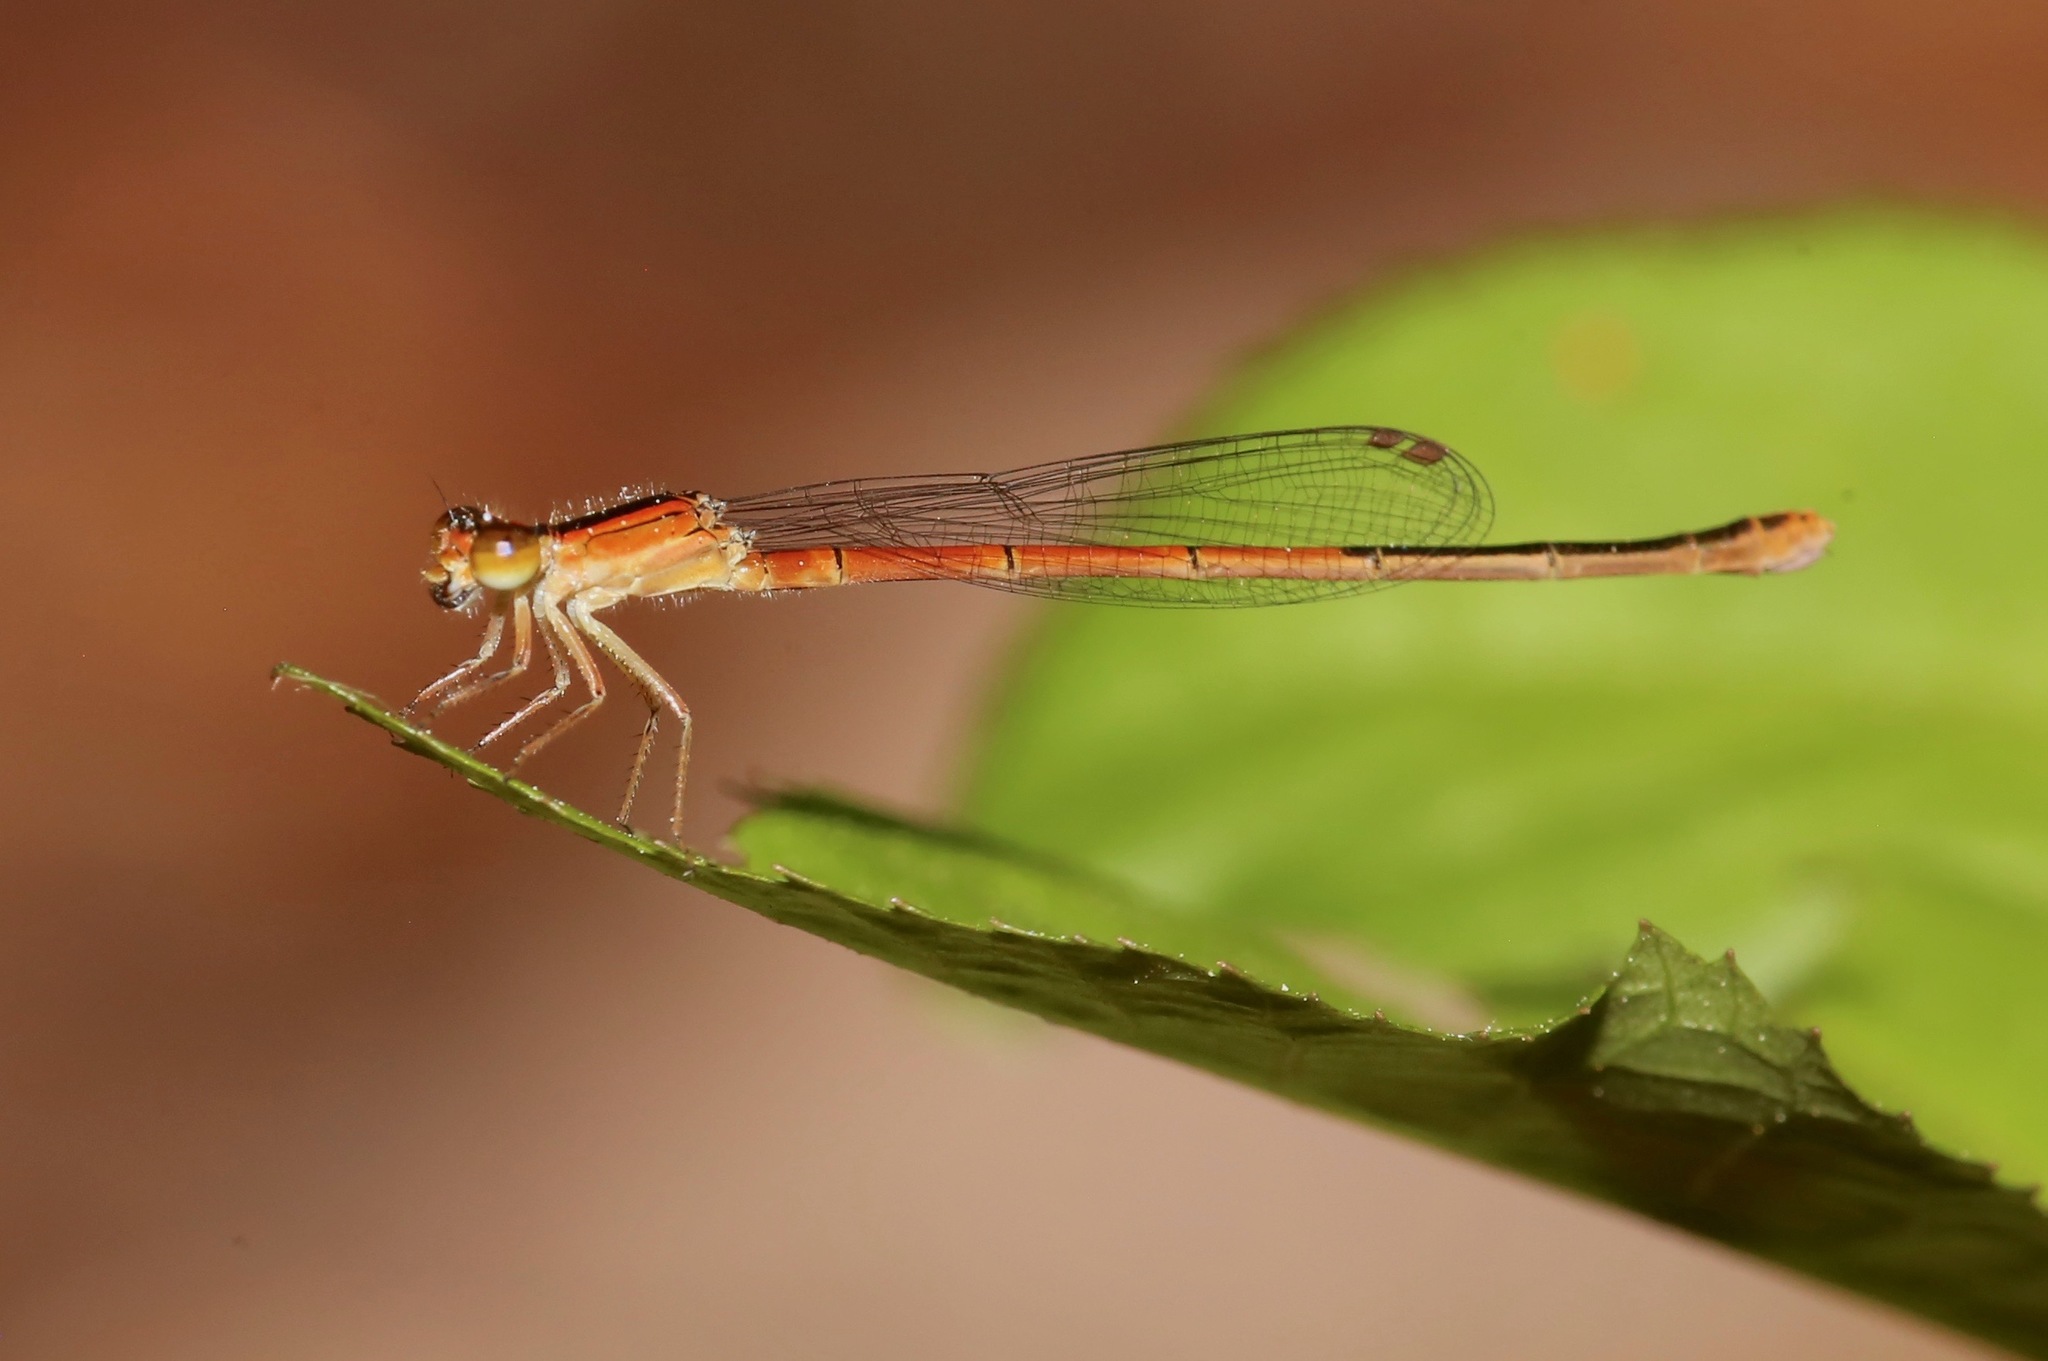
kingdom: Animalia
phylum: Arthropoda
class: Insecta
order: Odonata
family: Coenagrionidae
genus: Ischnura
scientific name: Ischnura hastata
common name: Citrine forktail
